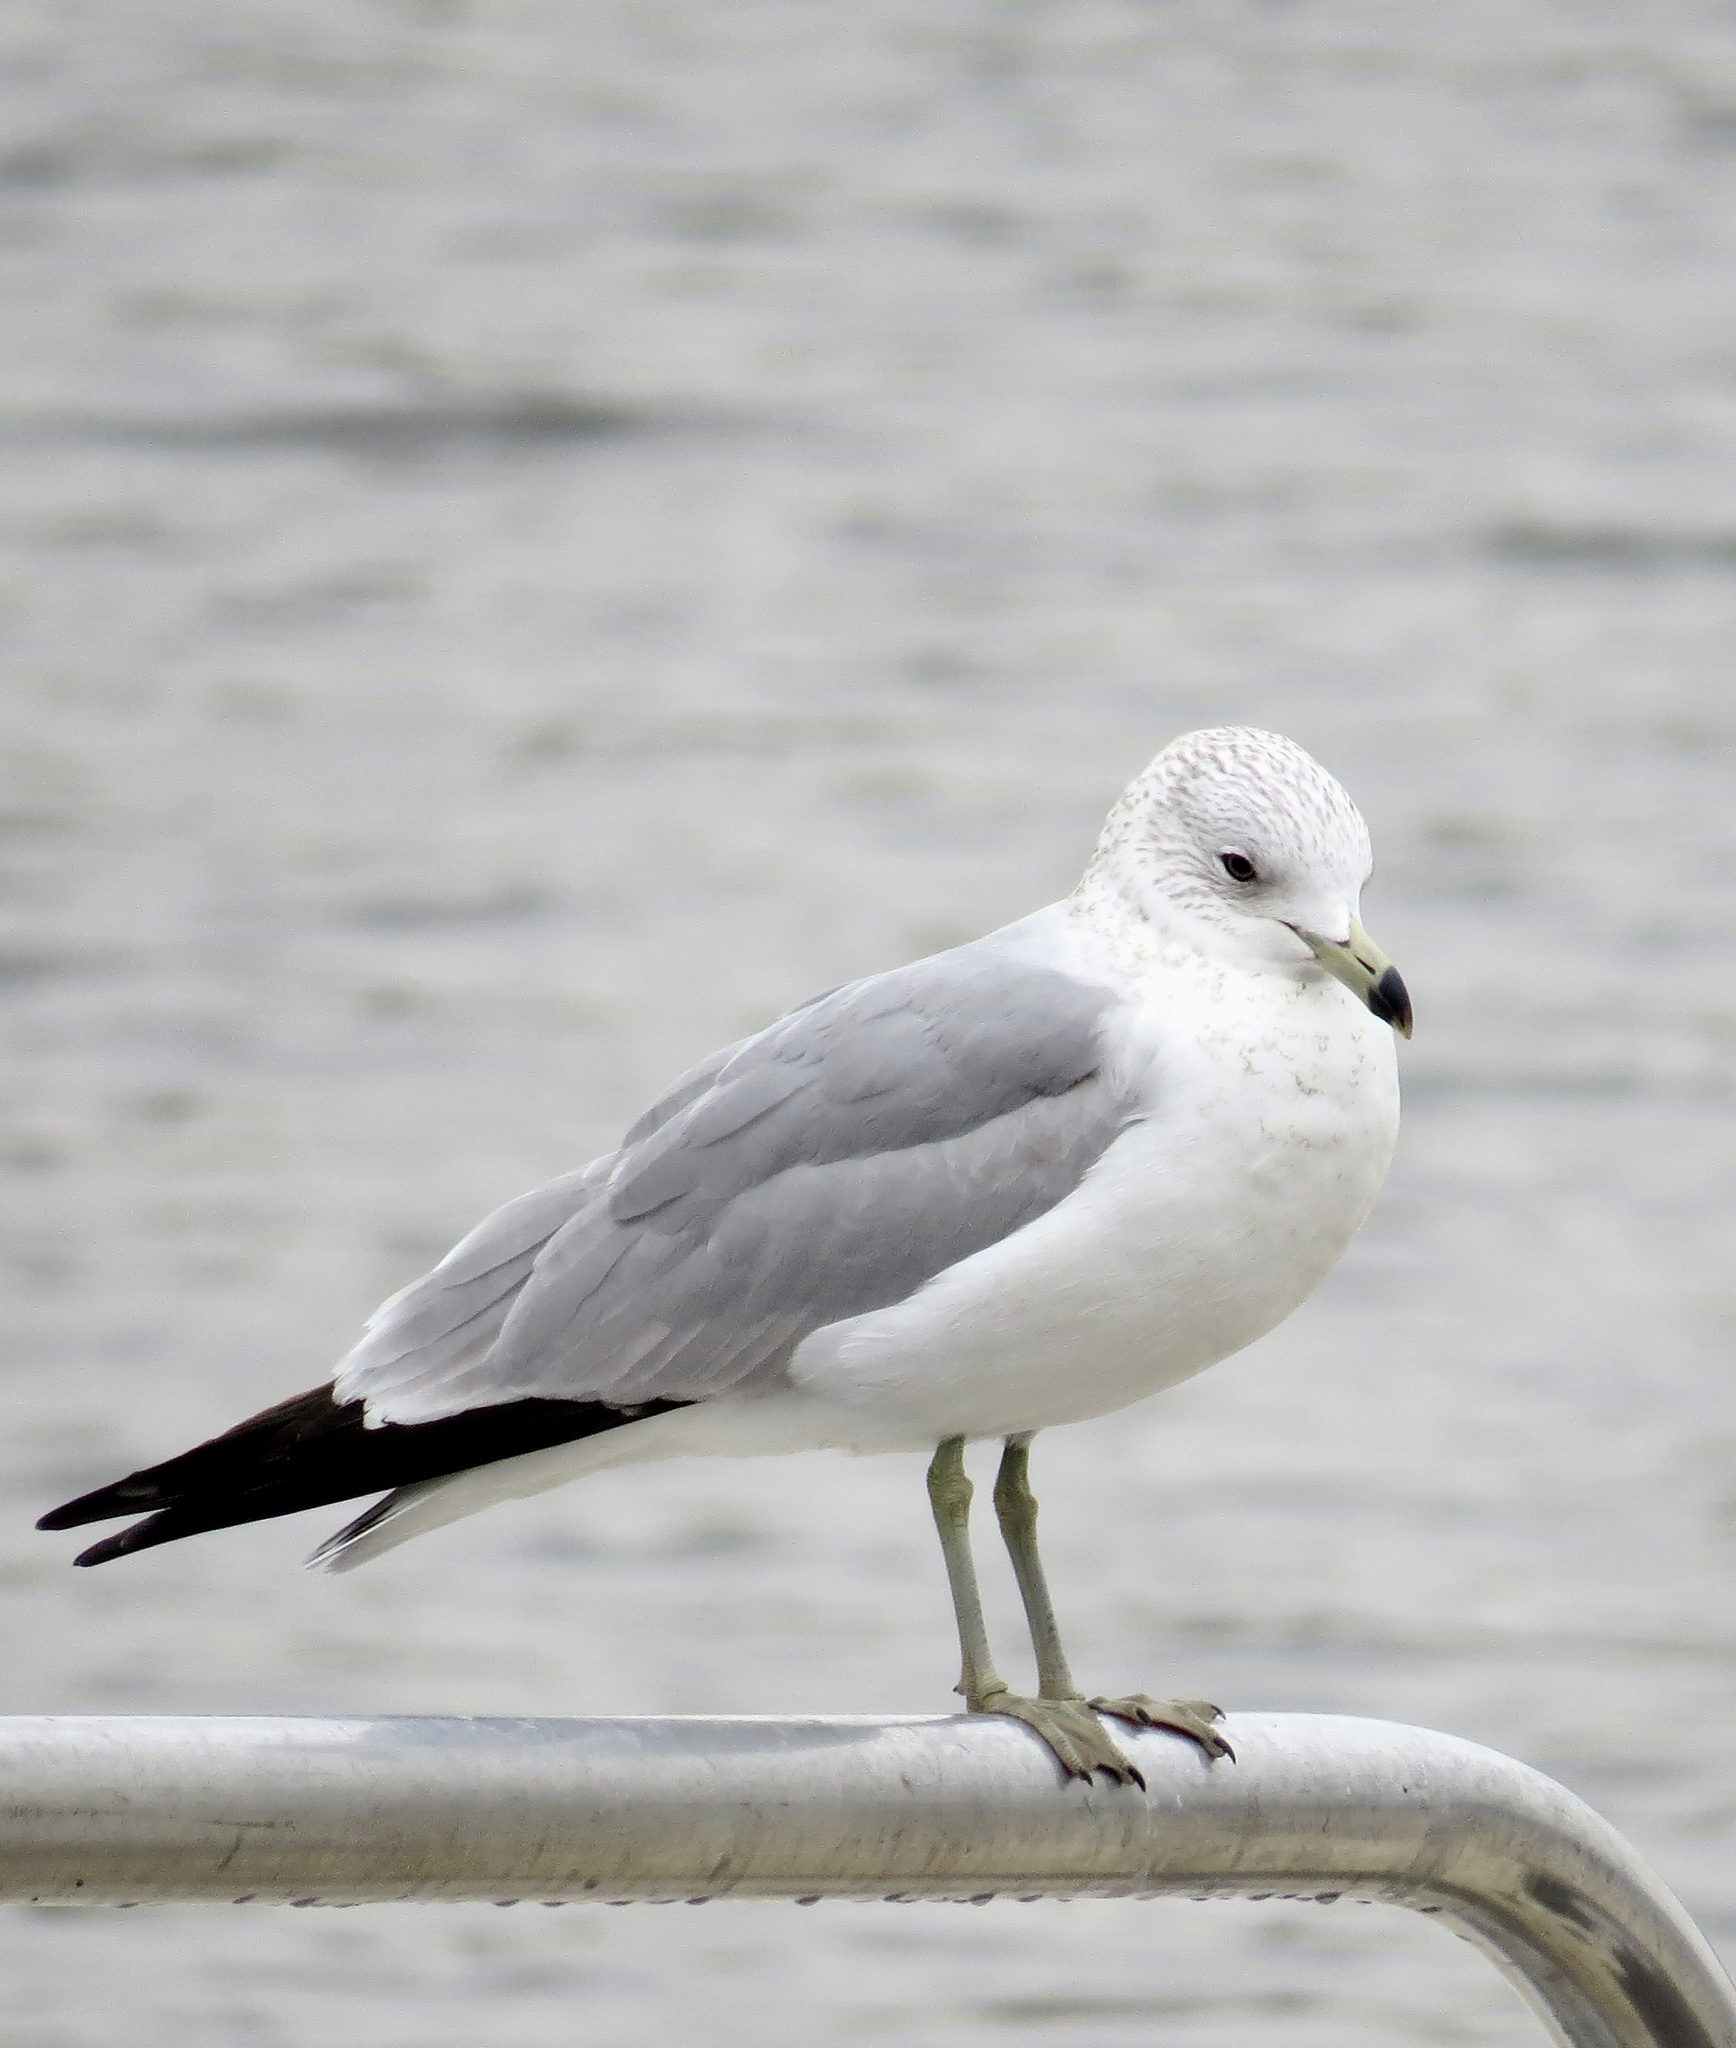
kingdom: Animalia
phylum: Chordata
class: Aves
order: Charadriiformes
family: Laridae
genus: Larus
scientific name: Larus delawarensis
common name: Ring-billed gull
